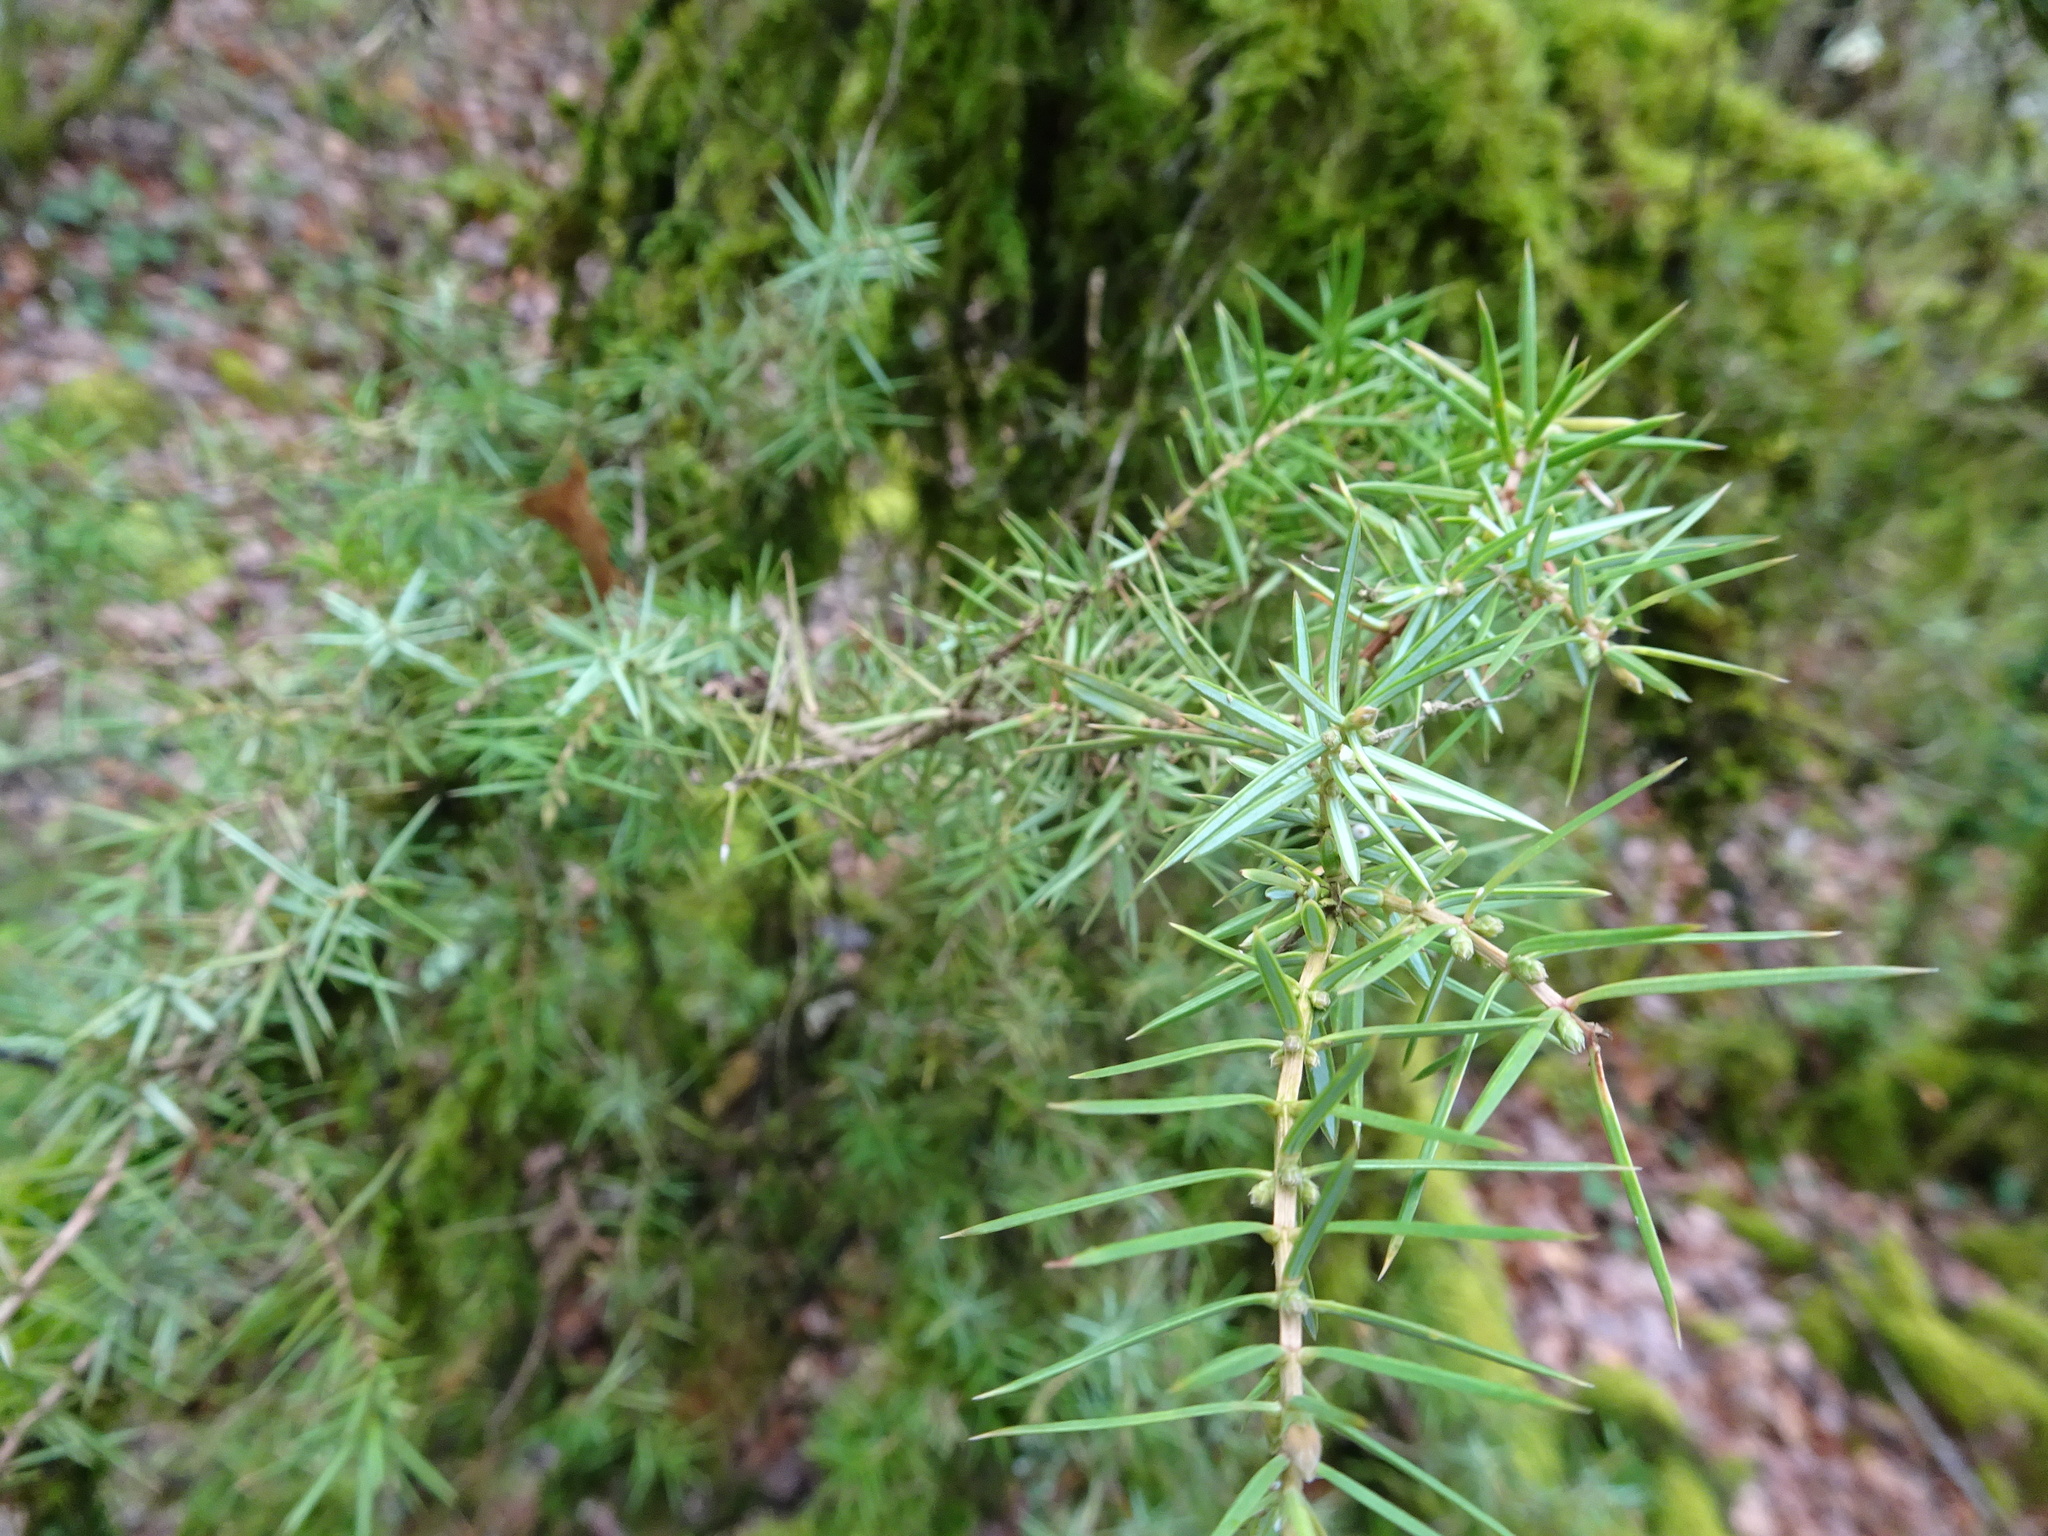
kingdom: Plantae
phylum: Tracheophyta
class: Pinopsida
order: Pinales
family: Cupressaceae
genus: Juniperus
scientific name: Juniperus communis
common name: Common juniper
